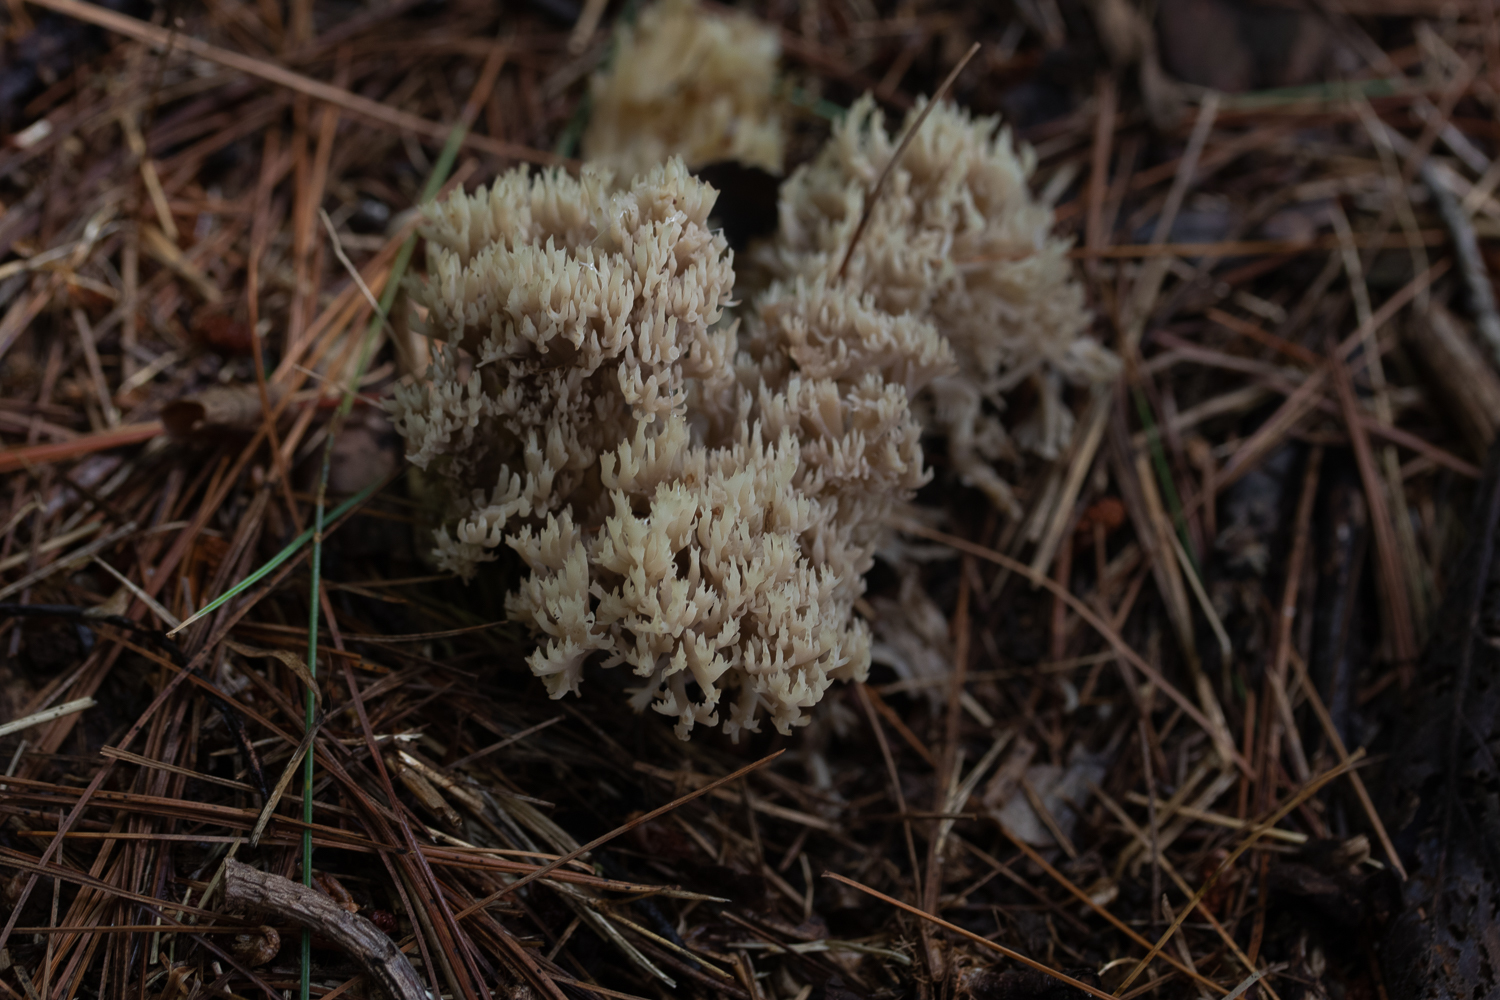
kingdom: Fungi
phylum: Basidiomycota
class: Agaricomycetes
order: Cantharellales
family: Hydnaceae
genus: Clavulina
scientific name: Clavulina coralloides
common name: Crested coral
